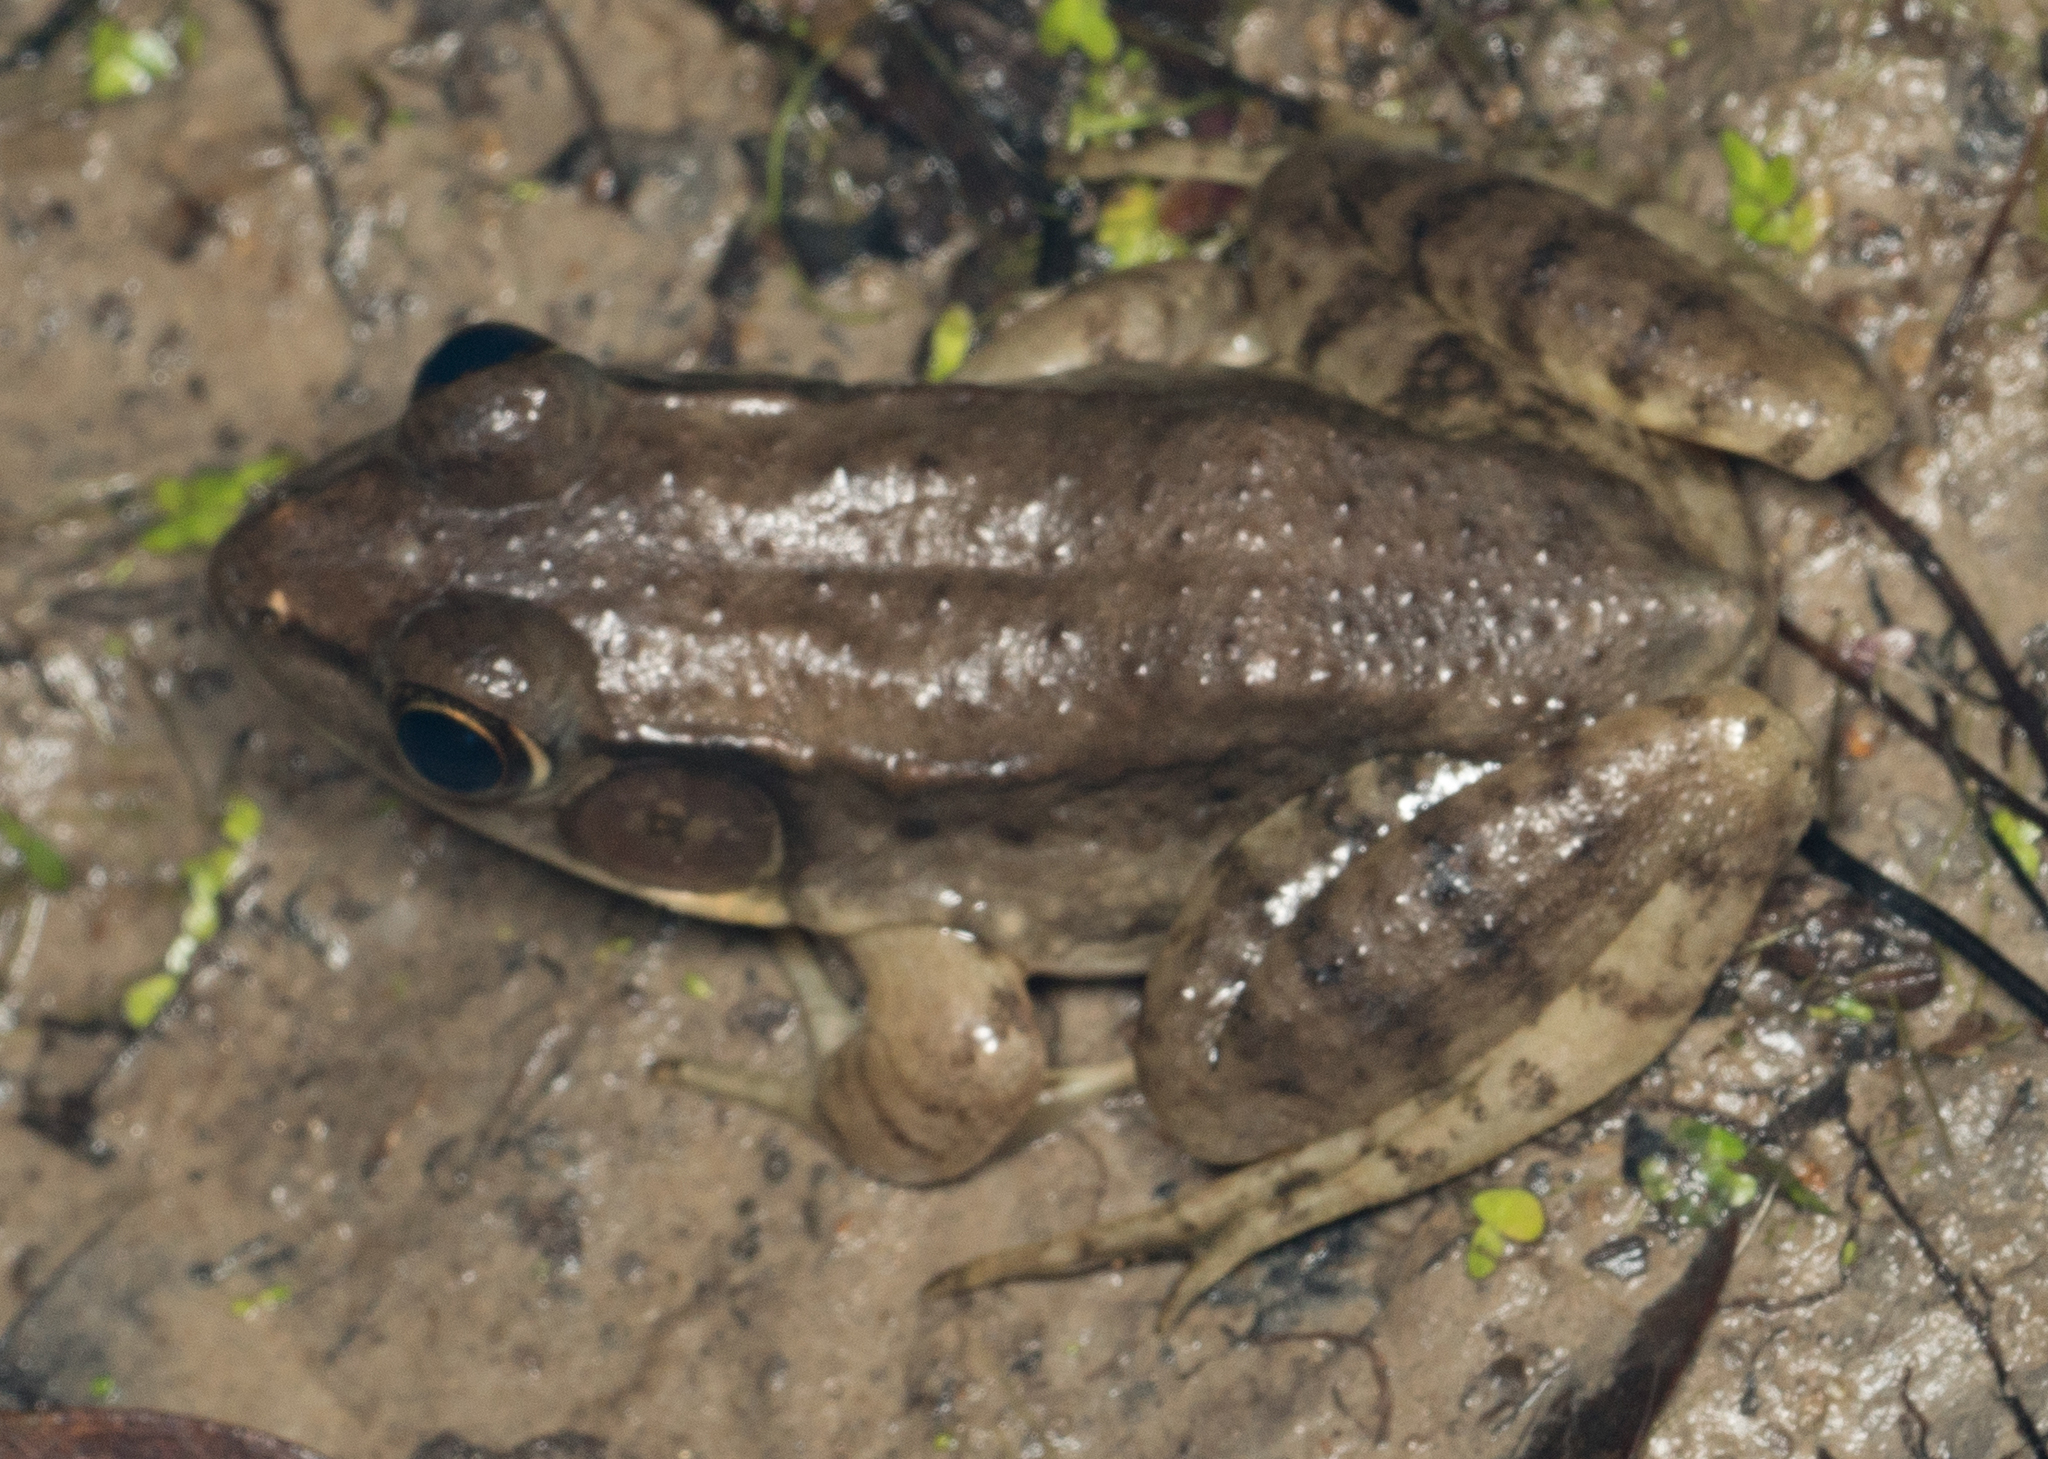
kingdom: Animalia
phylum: Chordata
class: Amphibia
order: Anura
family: Ranidae
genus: Lithobates
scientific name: Lithobates clamitans
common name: Green frog
